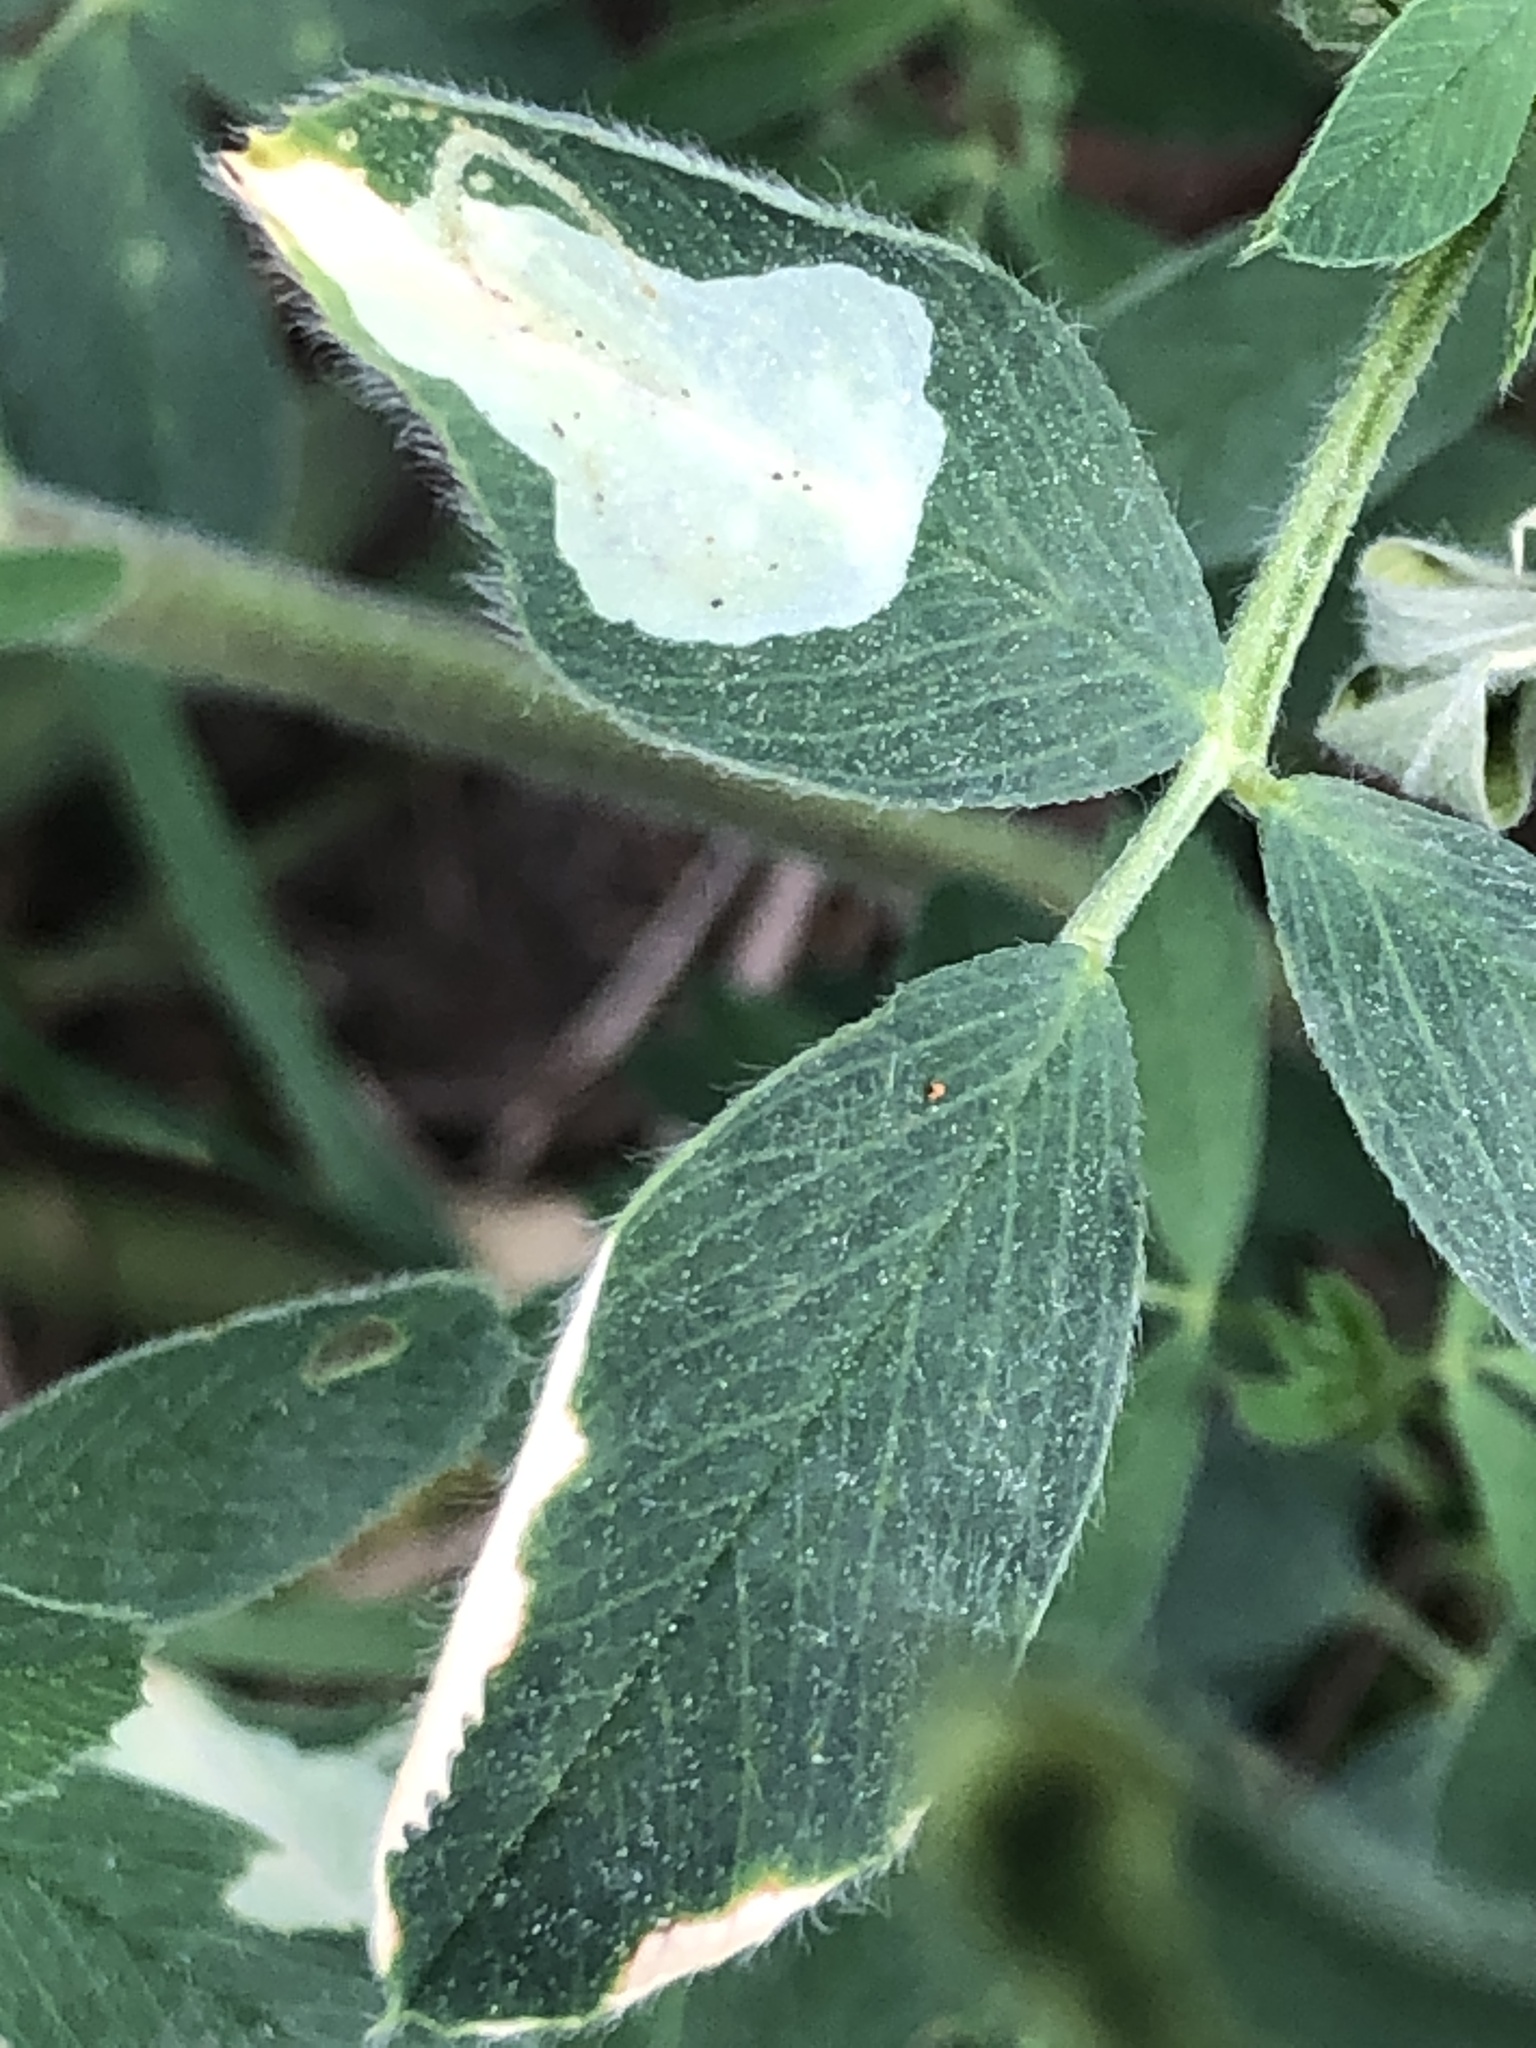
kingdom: Animalia
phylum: Arthropoda
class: Insecta
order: Diptera
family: Agromyzidae
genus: Agromyza
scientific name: Agromyza nana
